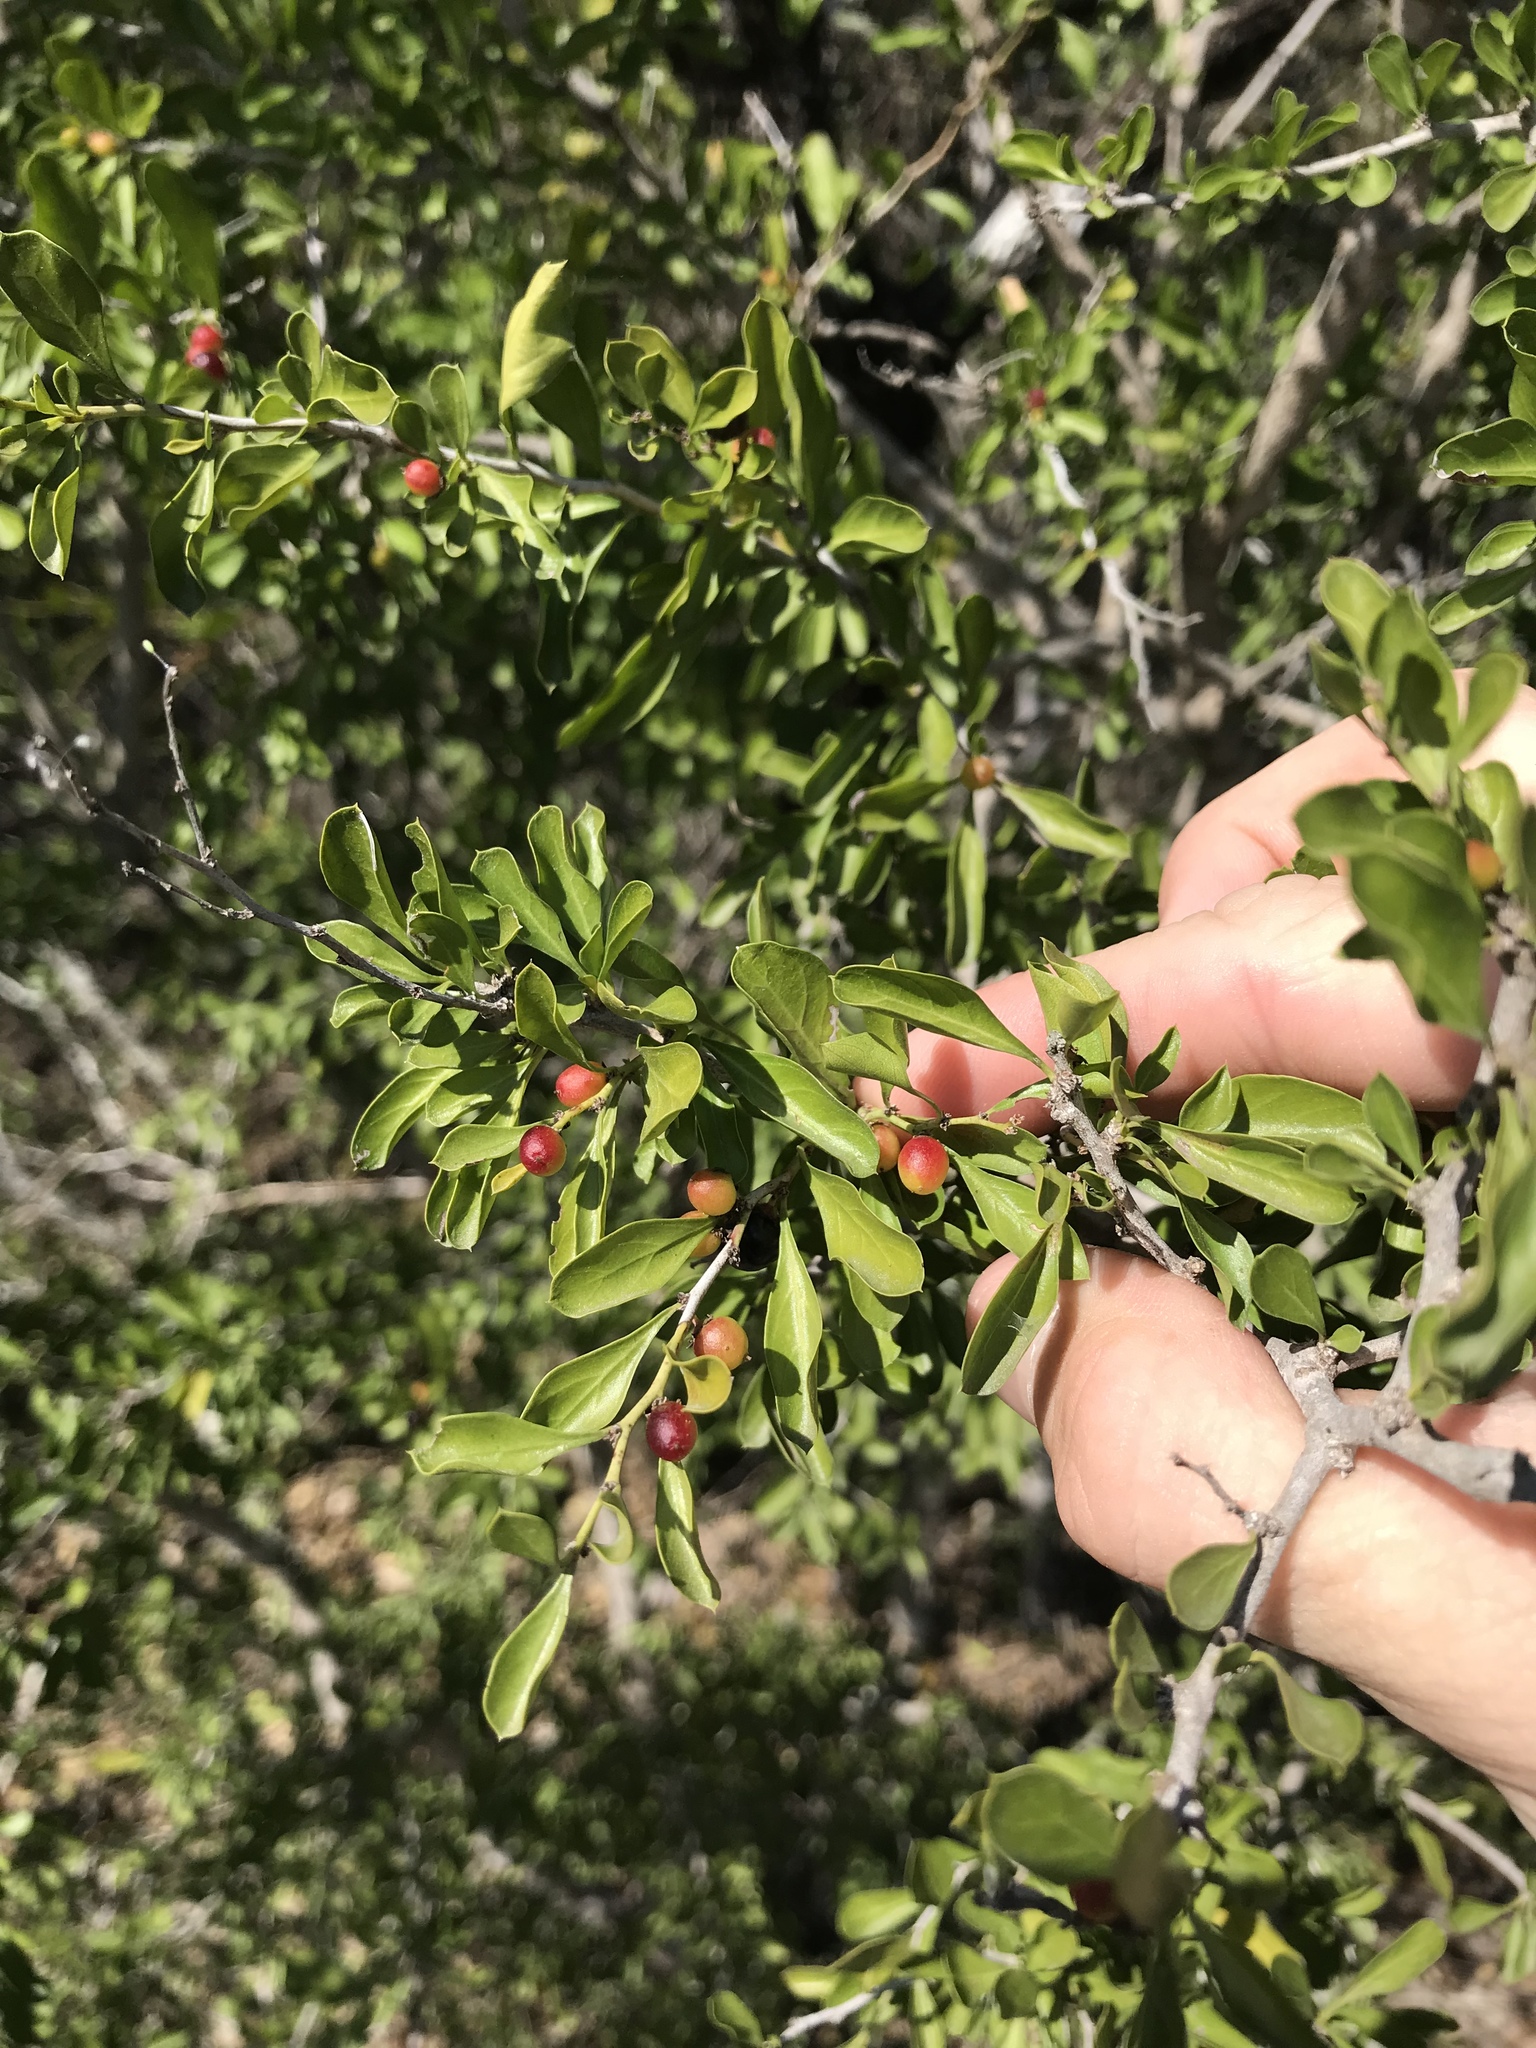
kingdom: Plantae
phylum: Tracheophyta
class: Magnoliopsida
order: Rosales
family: Rhamnaceae
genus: Condalia
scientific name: Condalia hookeri
